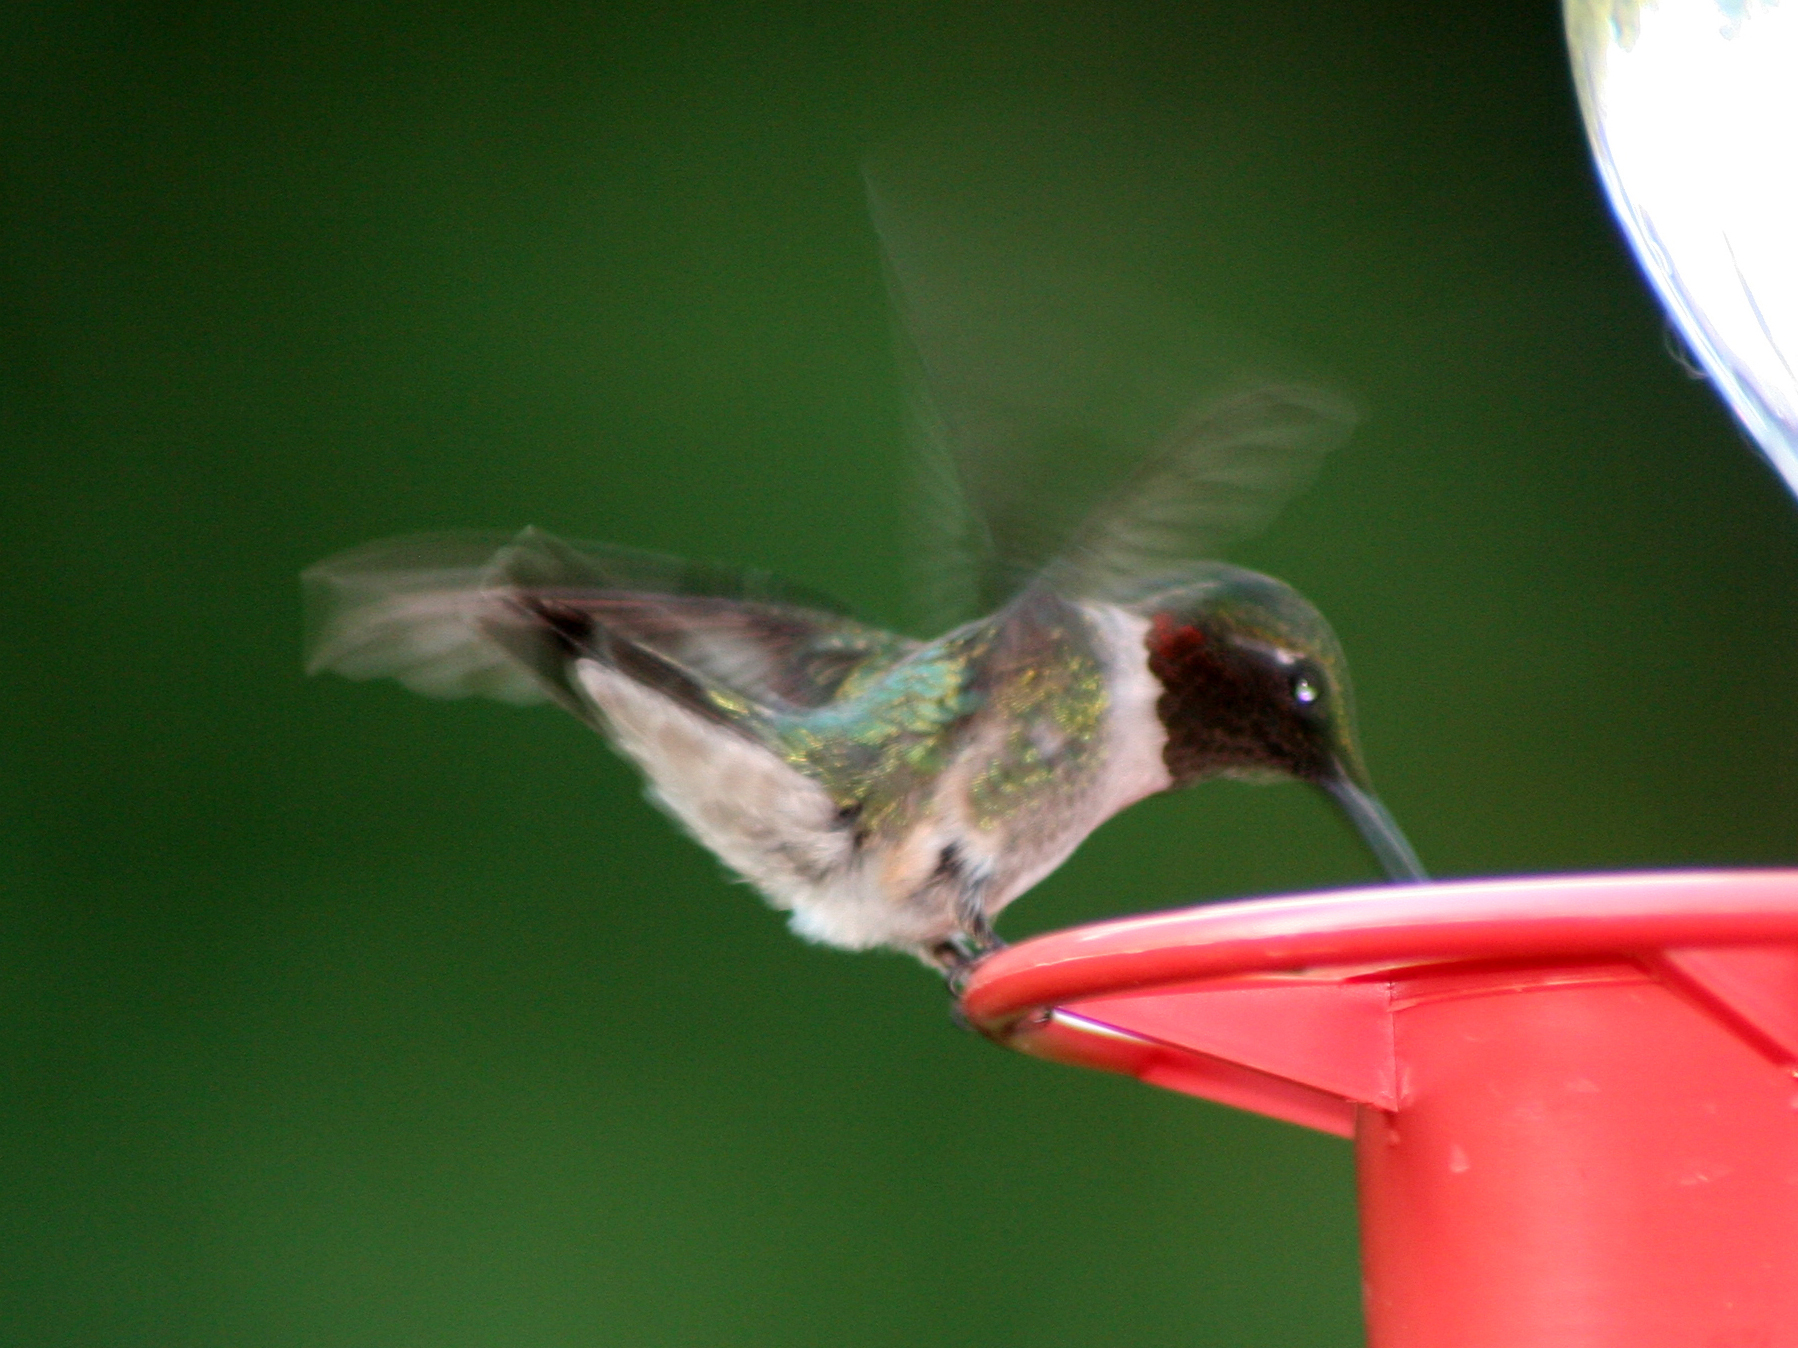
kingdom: Animalia
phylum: Chordata
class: Aves
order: Apodiformes
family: Trochilidae
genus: Archilochus
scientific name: Archilochus colubris
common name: Ruby-throated hummingbird
